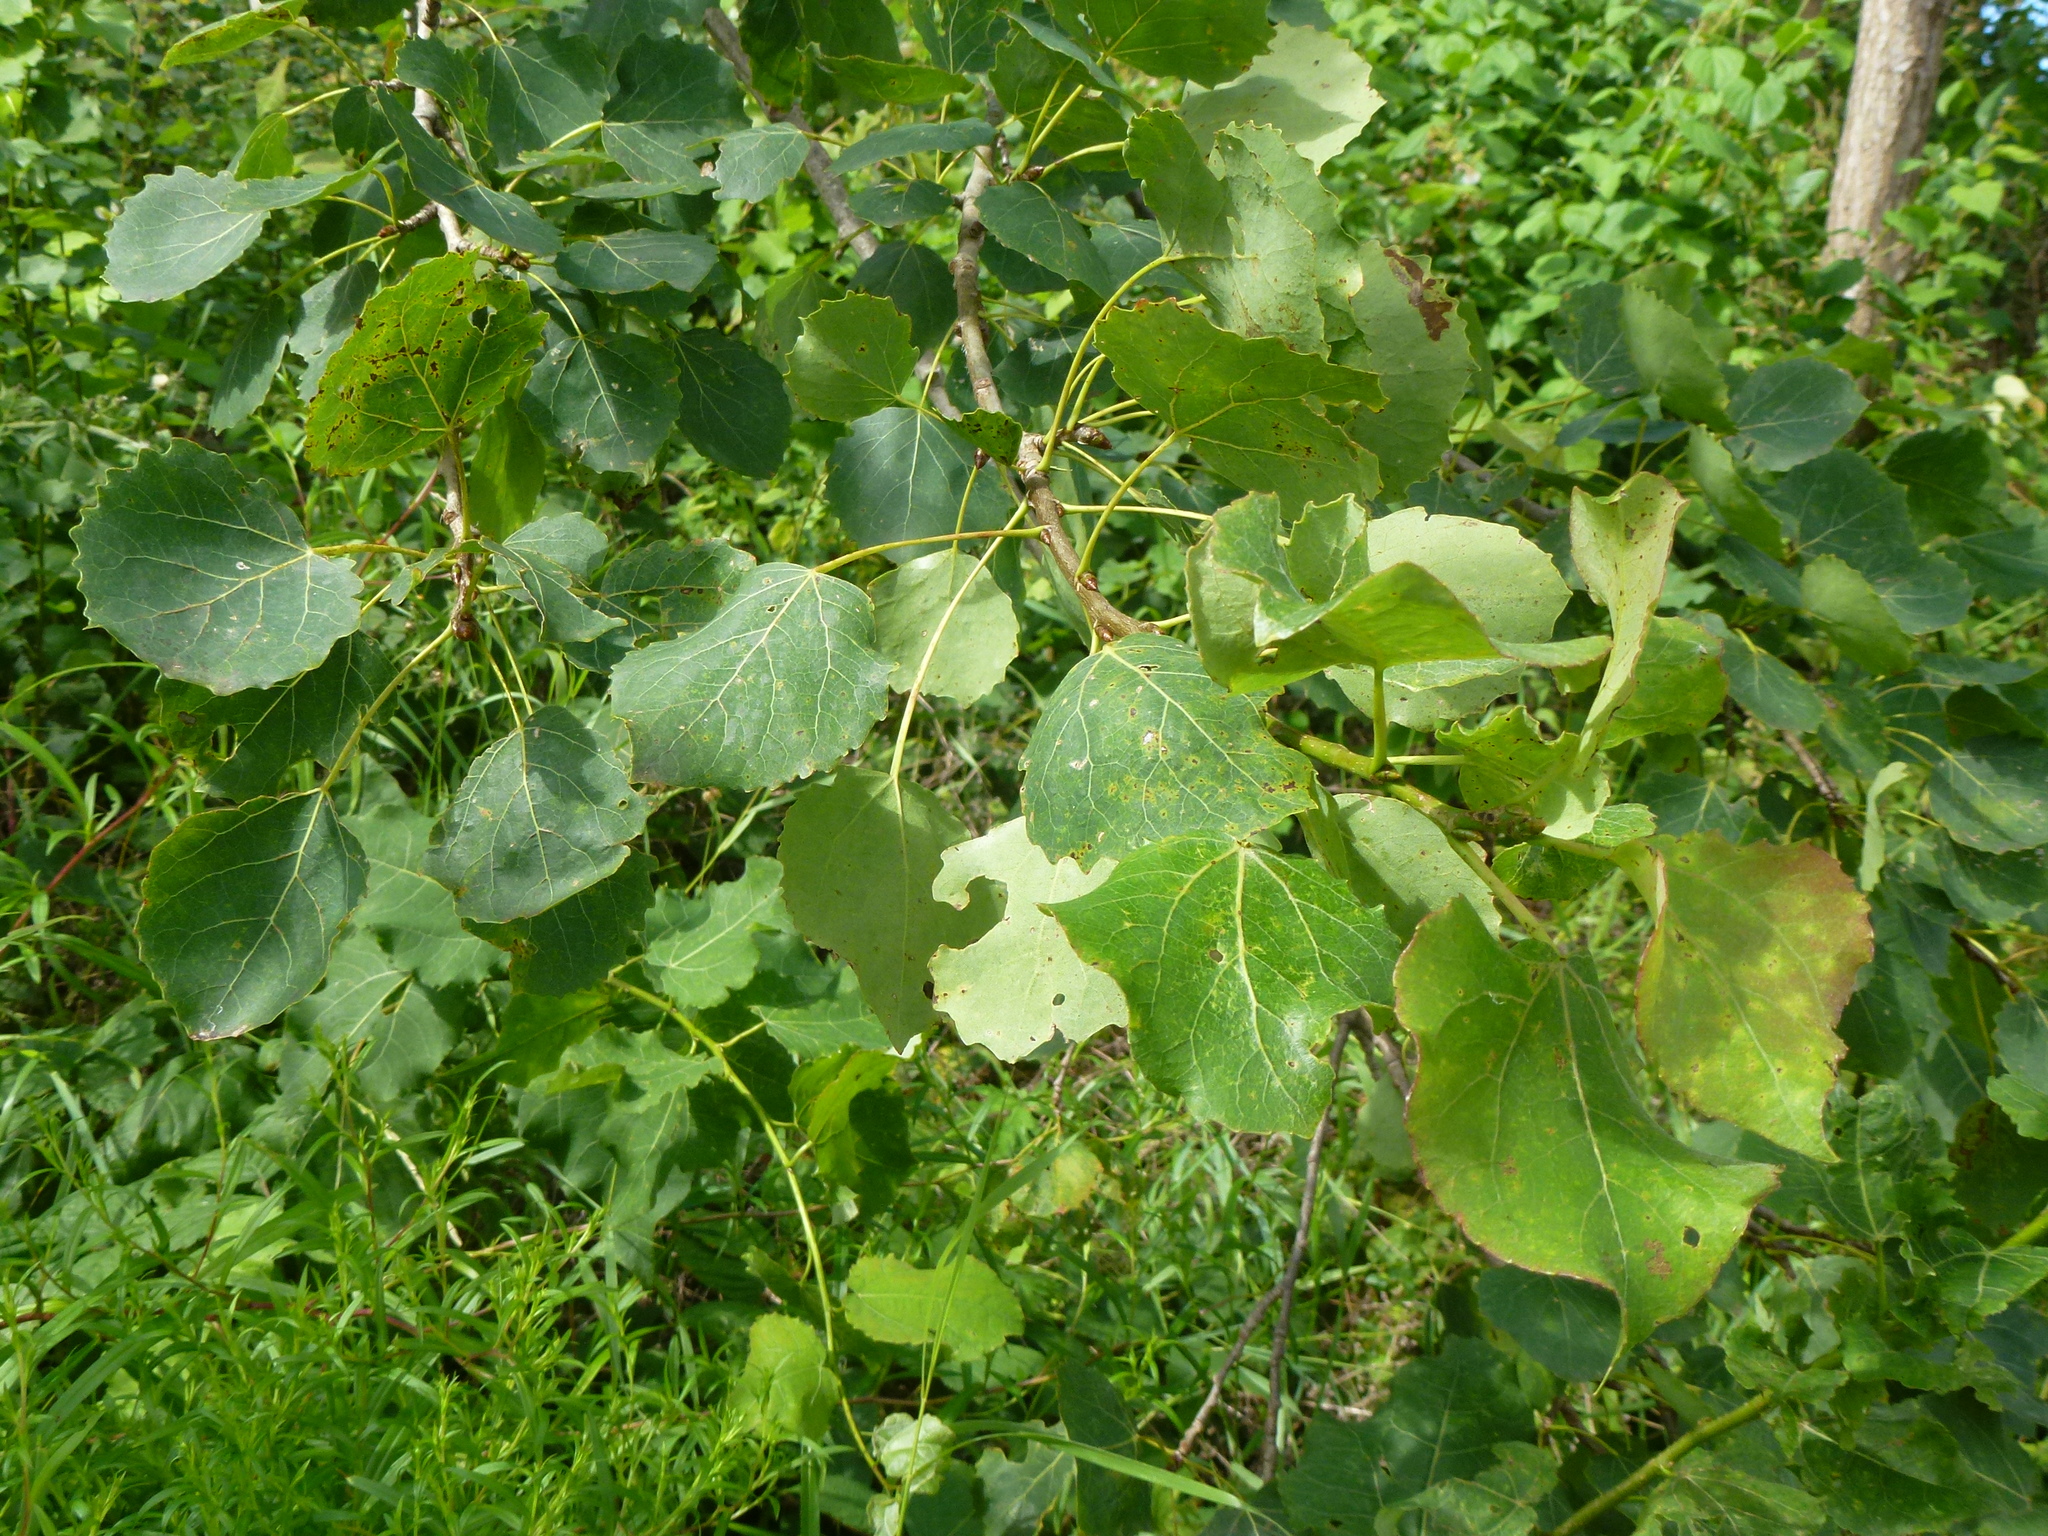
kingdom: Plantae
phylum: Tracheophyta
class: Magnoliopsida
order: Malpighiales
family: Salicaceae
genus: Populus
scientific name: Populus tremula
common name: European aspen
